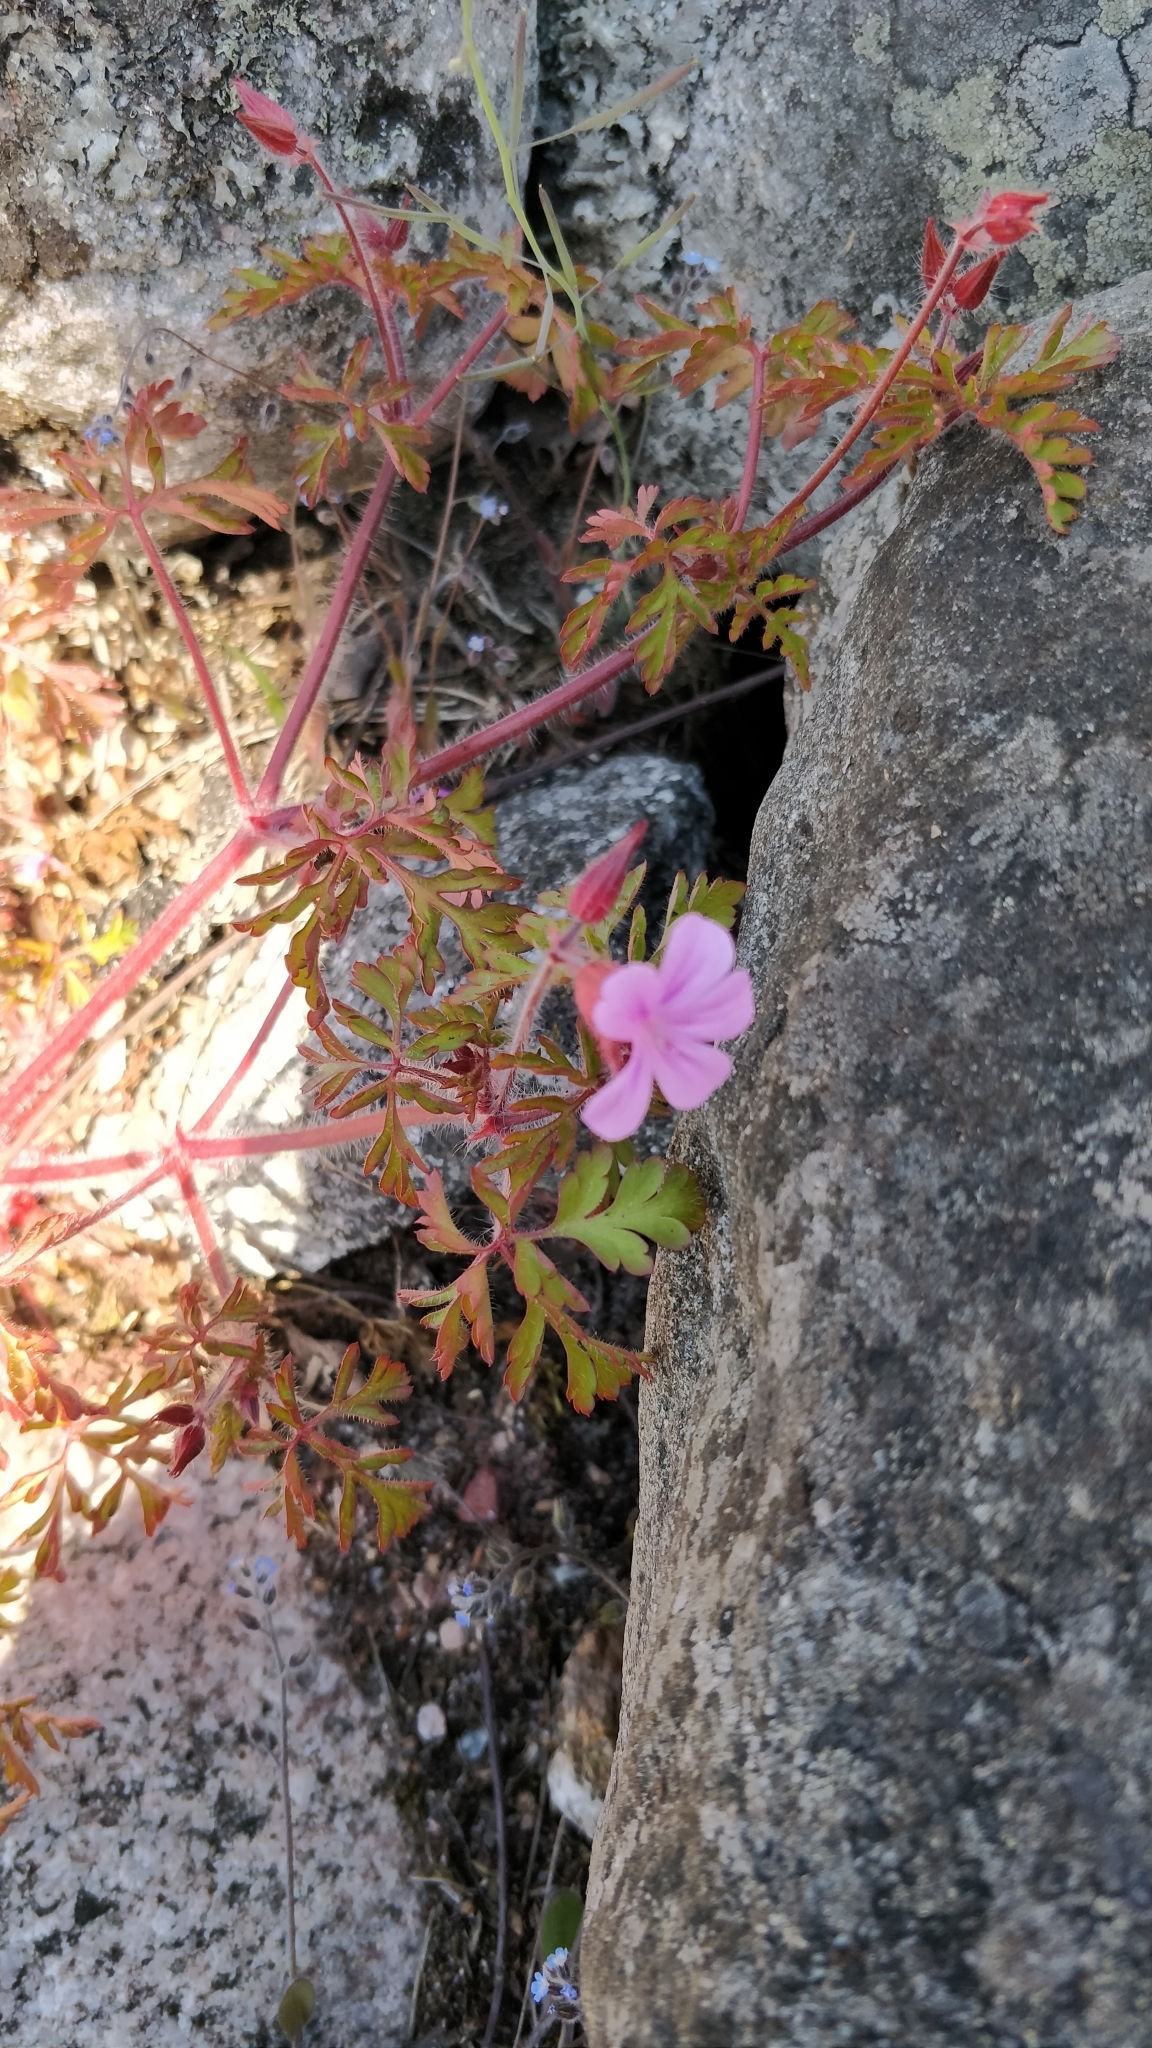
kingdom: Plantae
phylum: Tracheophyta
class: Magnoliopsida
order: Geraniales
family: Geraniaceae
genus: Geranium
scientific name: Geranium robertianum
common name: Herb-robert
